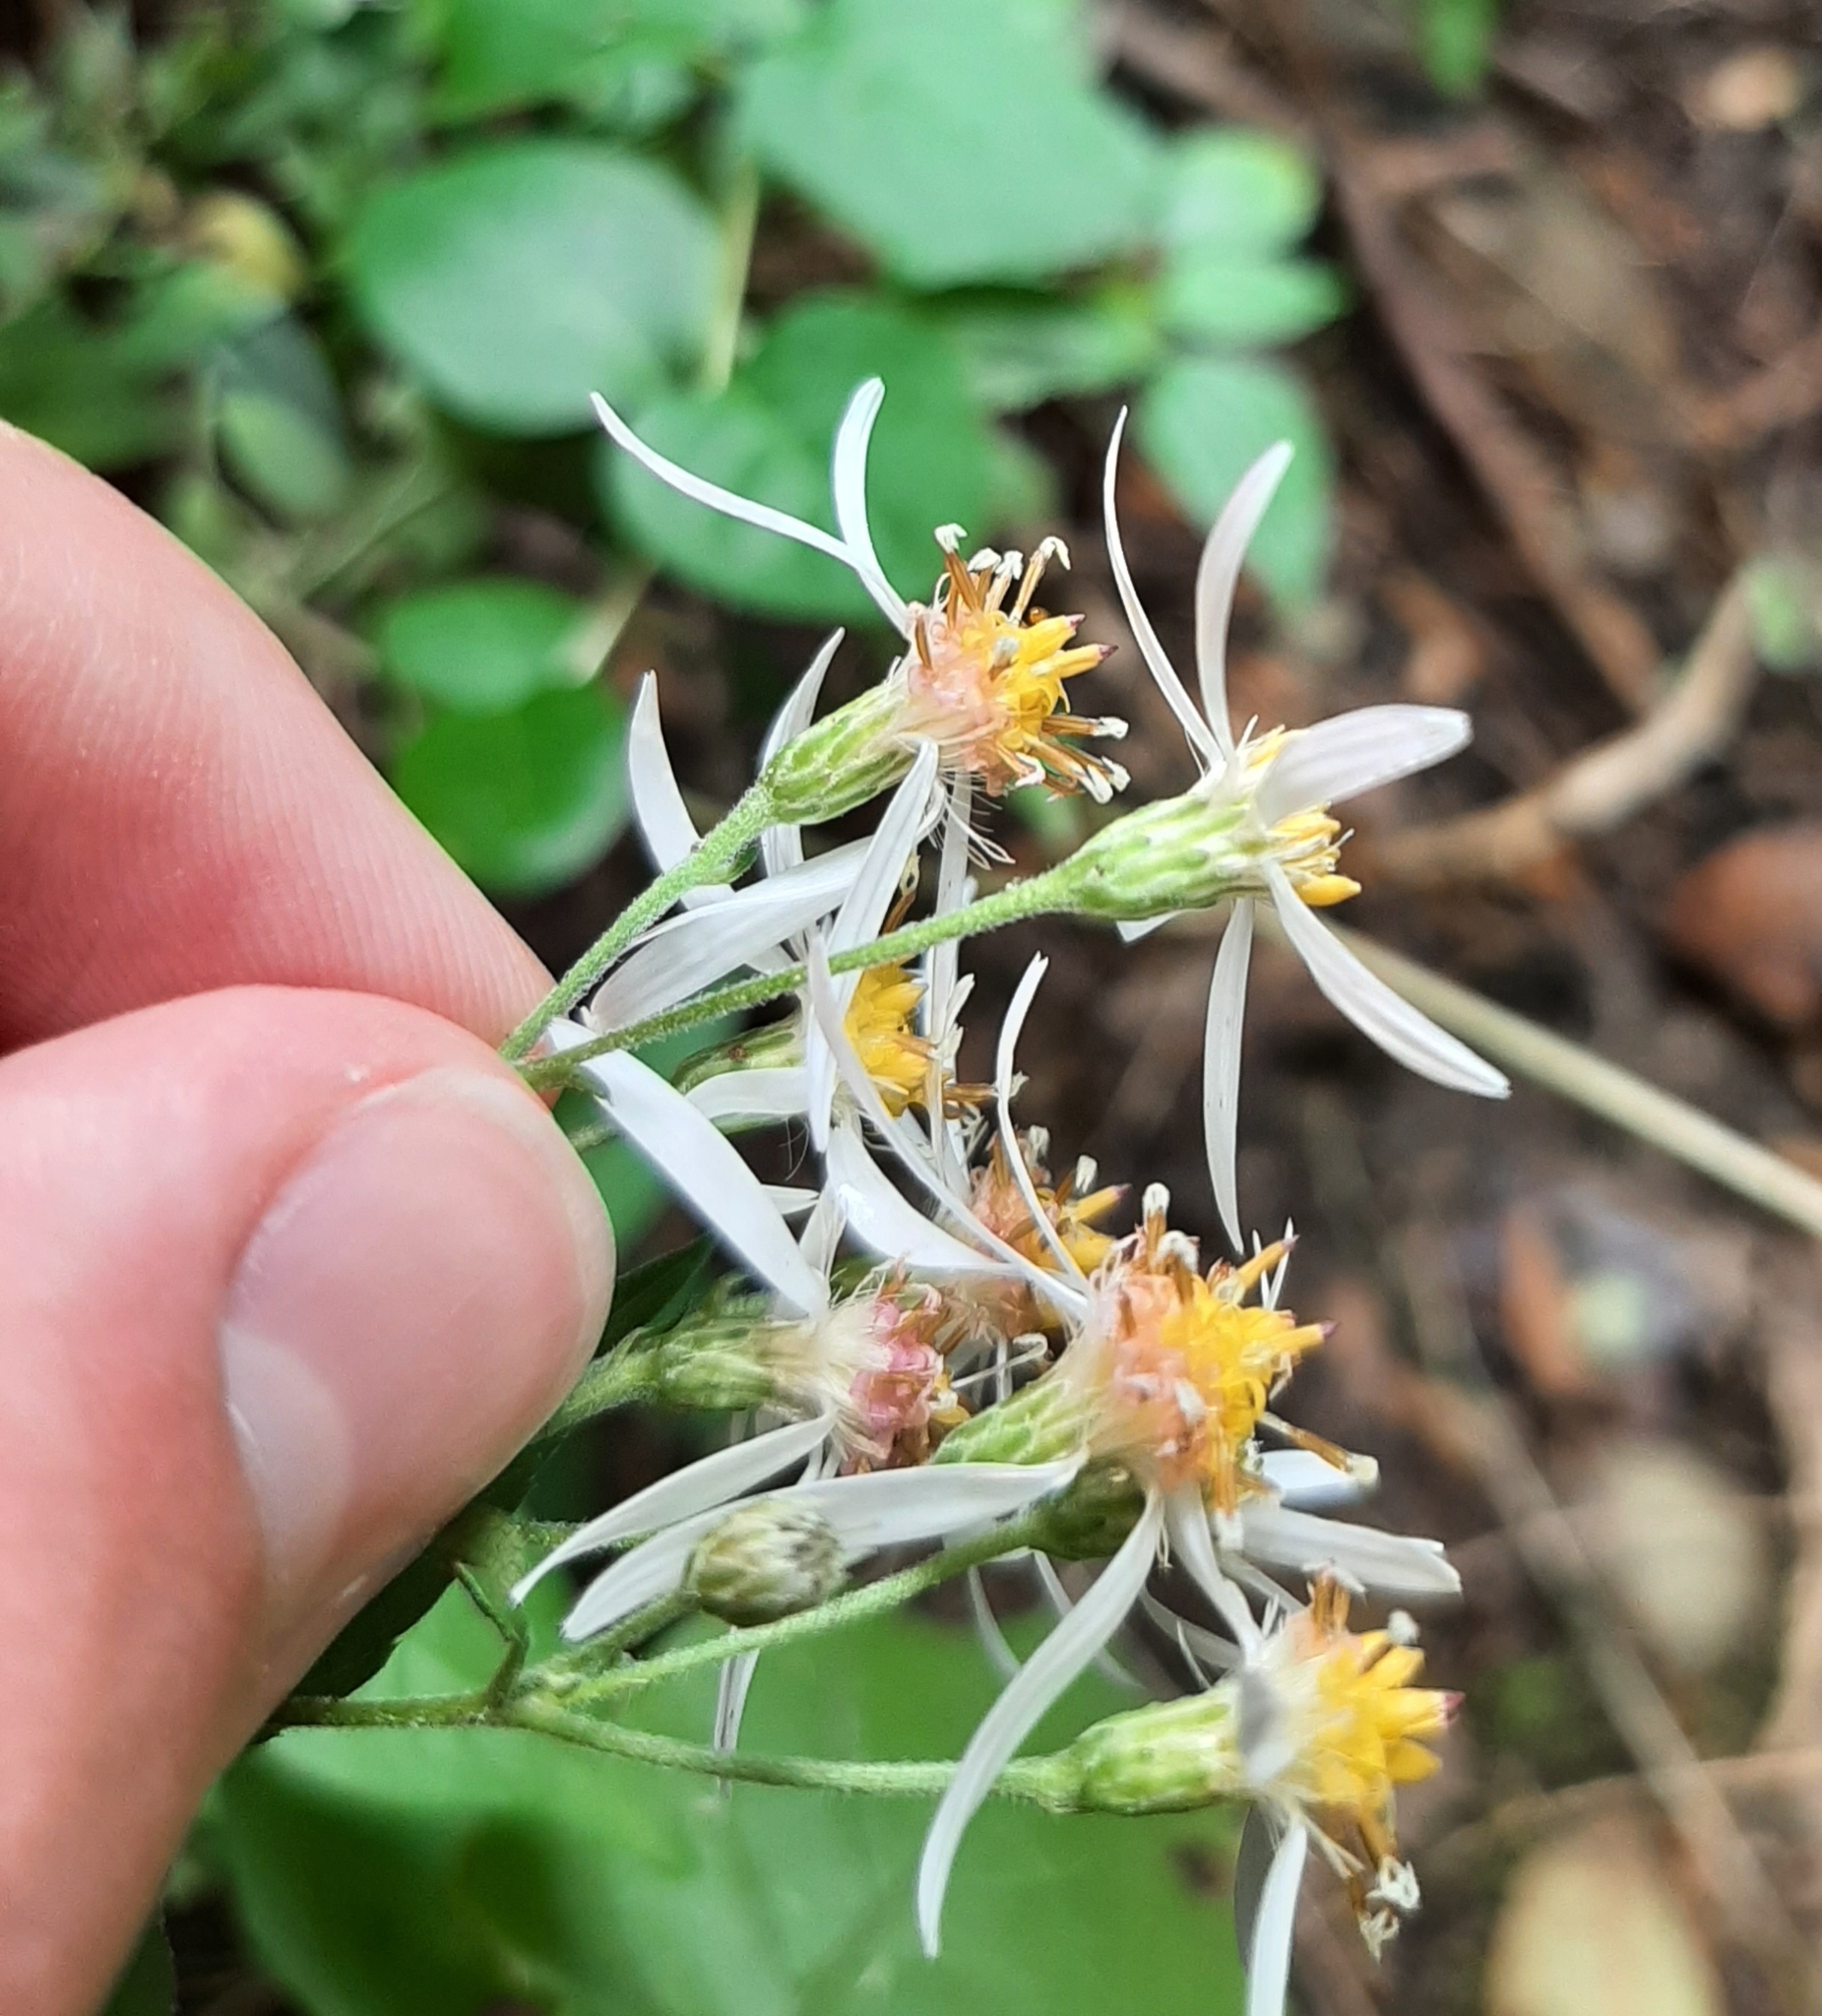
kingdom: Plantae
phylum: Tracheophyta
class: Magnoliopsida
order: Asterales
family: Asteraceae
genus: Eurybia
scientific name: Eurybia divaricata
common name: White wood aster
